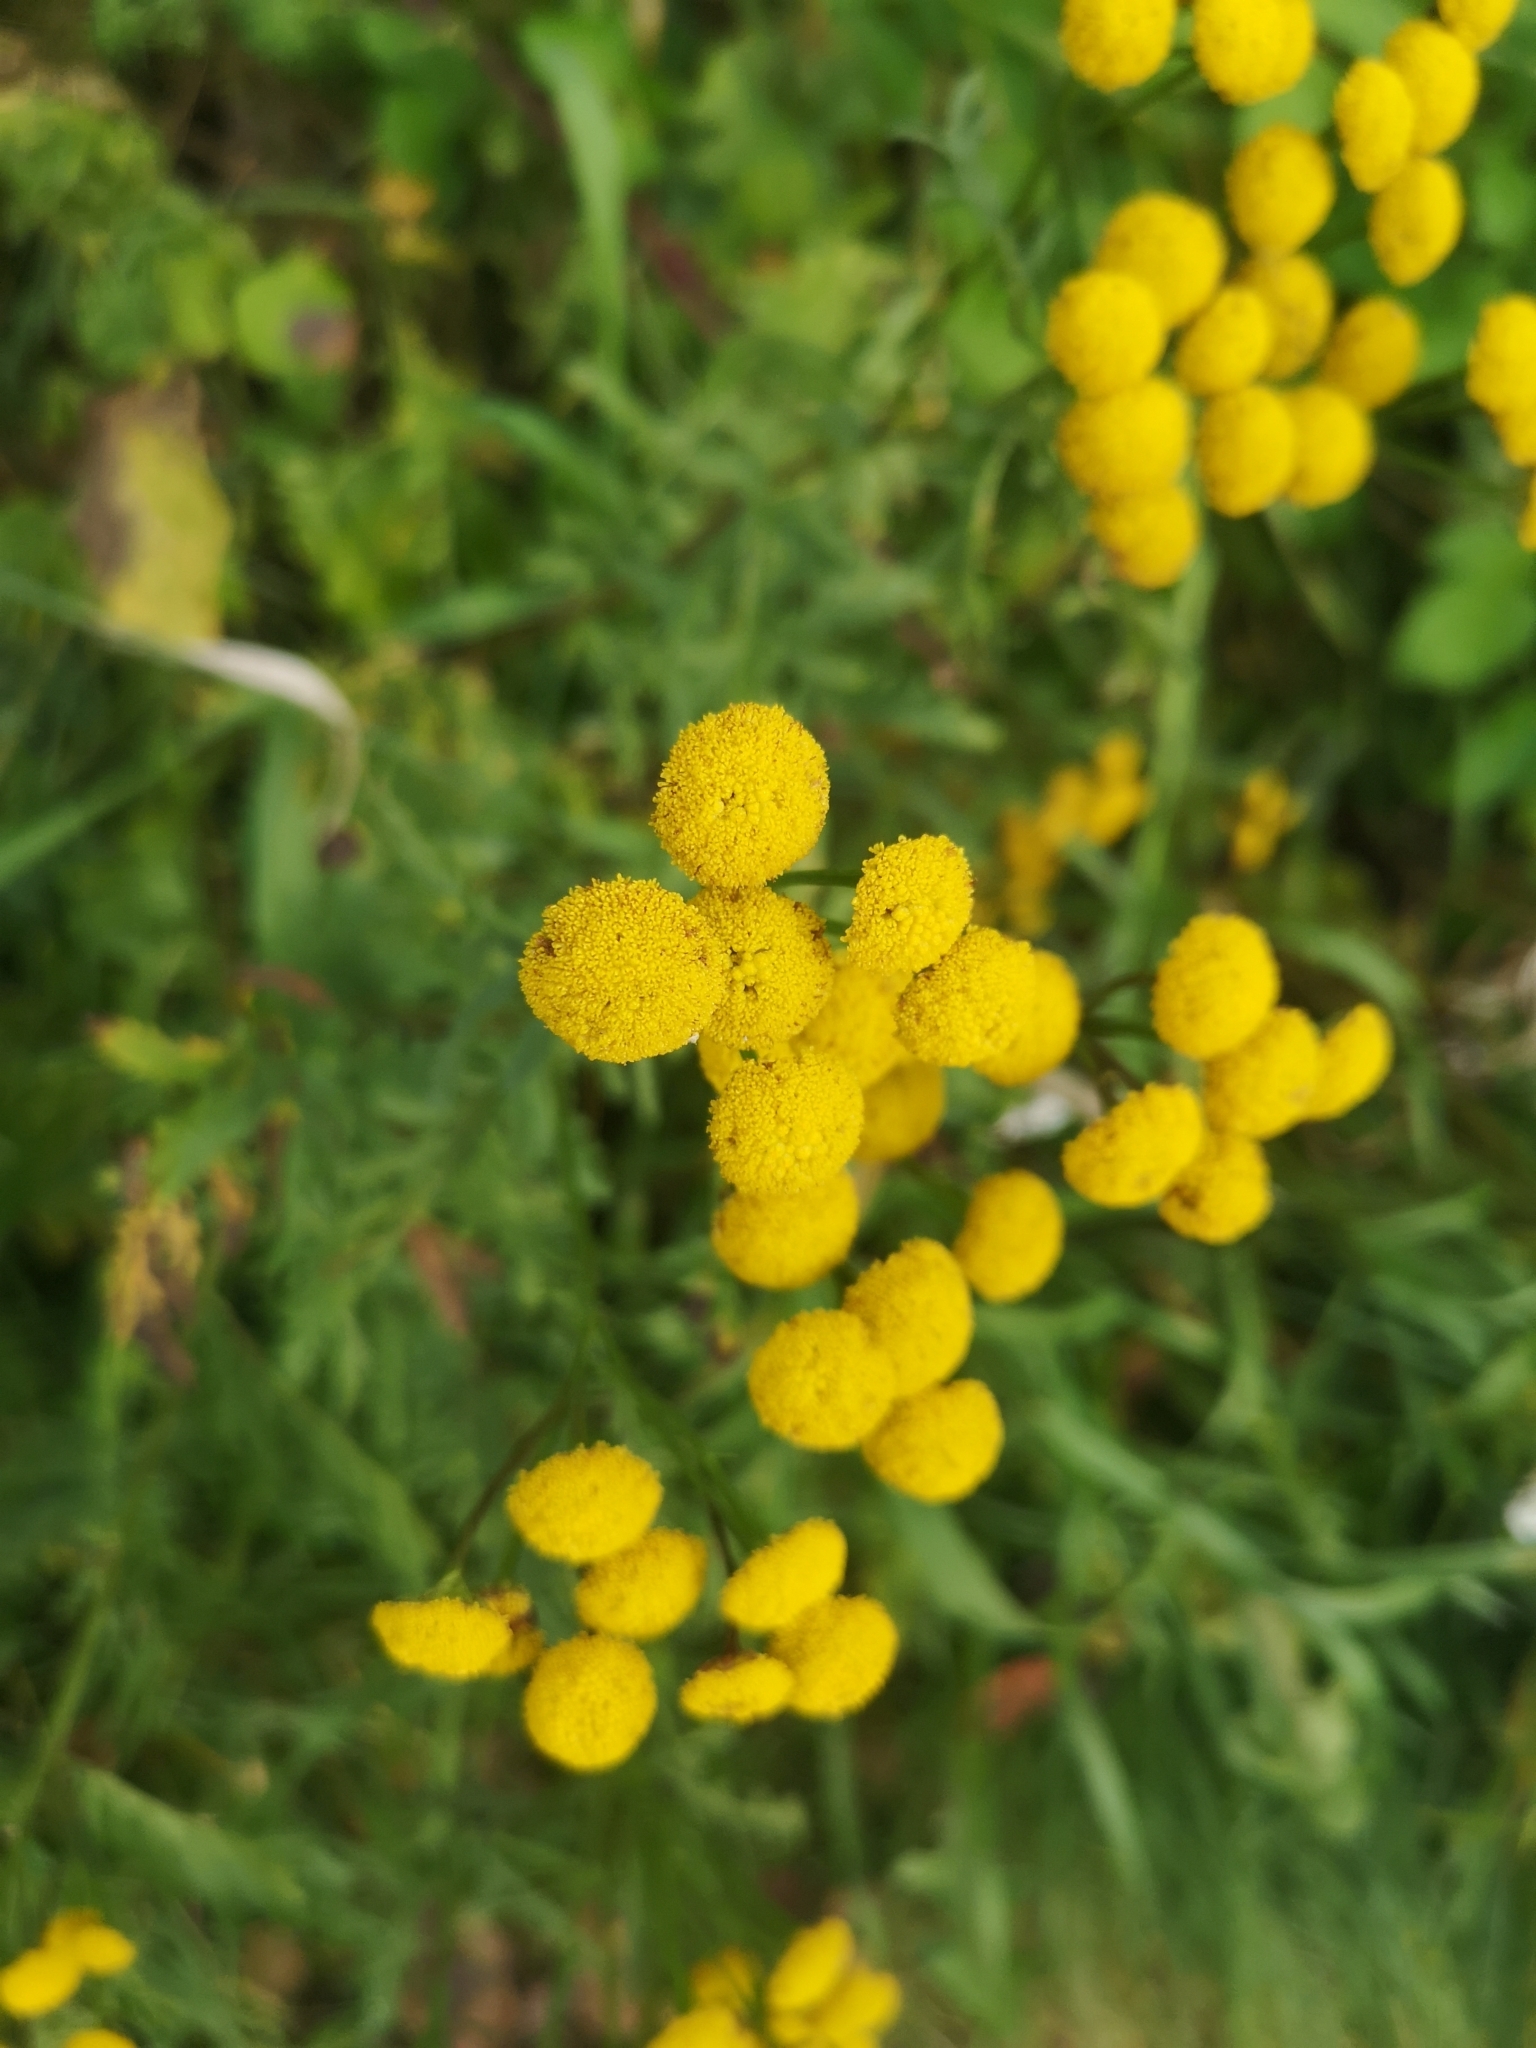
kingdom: Plantae
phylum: Tracheophyta
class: Magnoliopsida
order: Asterales
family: Asteraceae
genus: Tanacetum
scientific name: Tanacetum vulgare
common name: Common tansy
